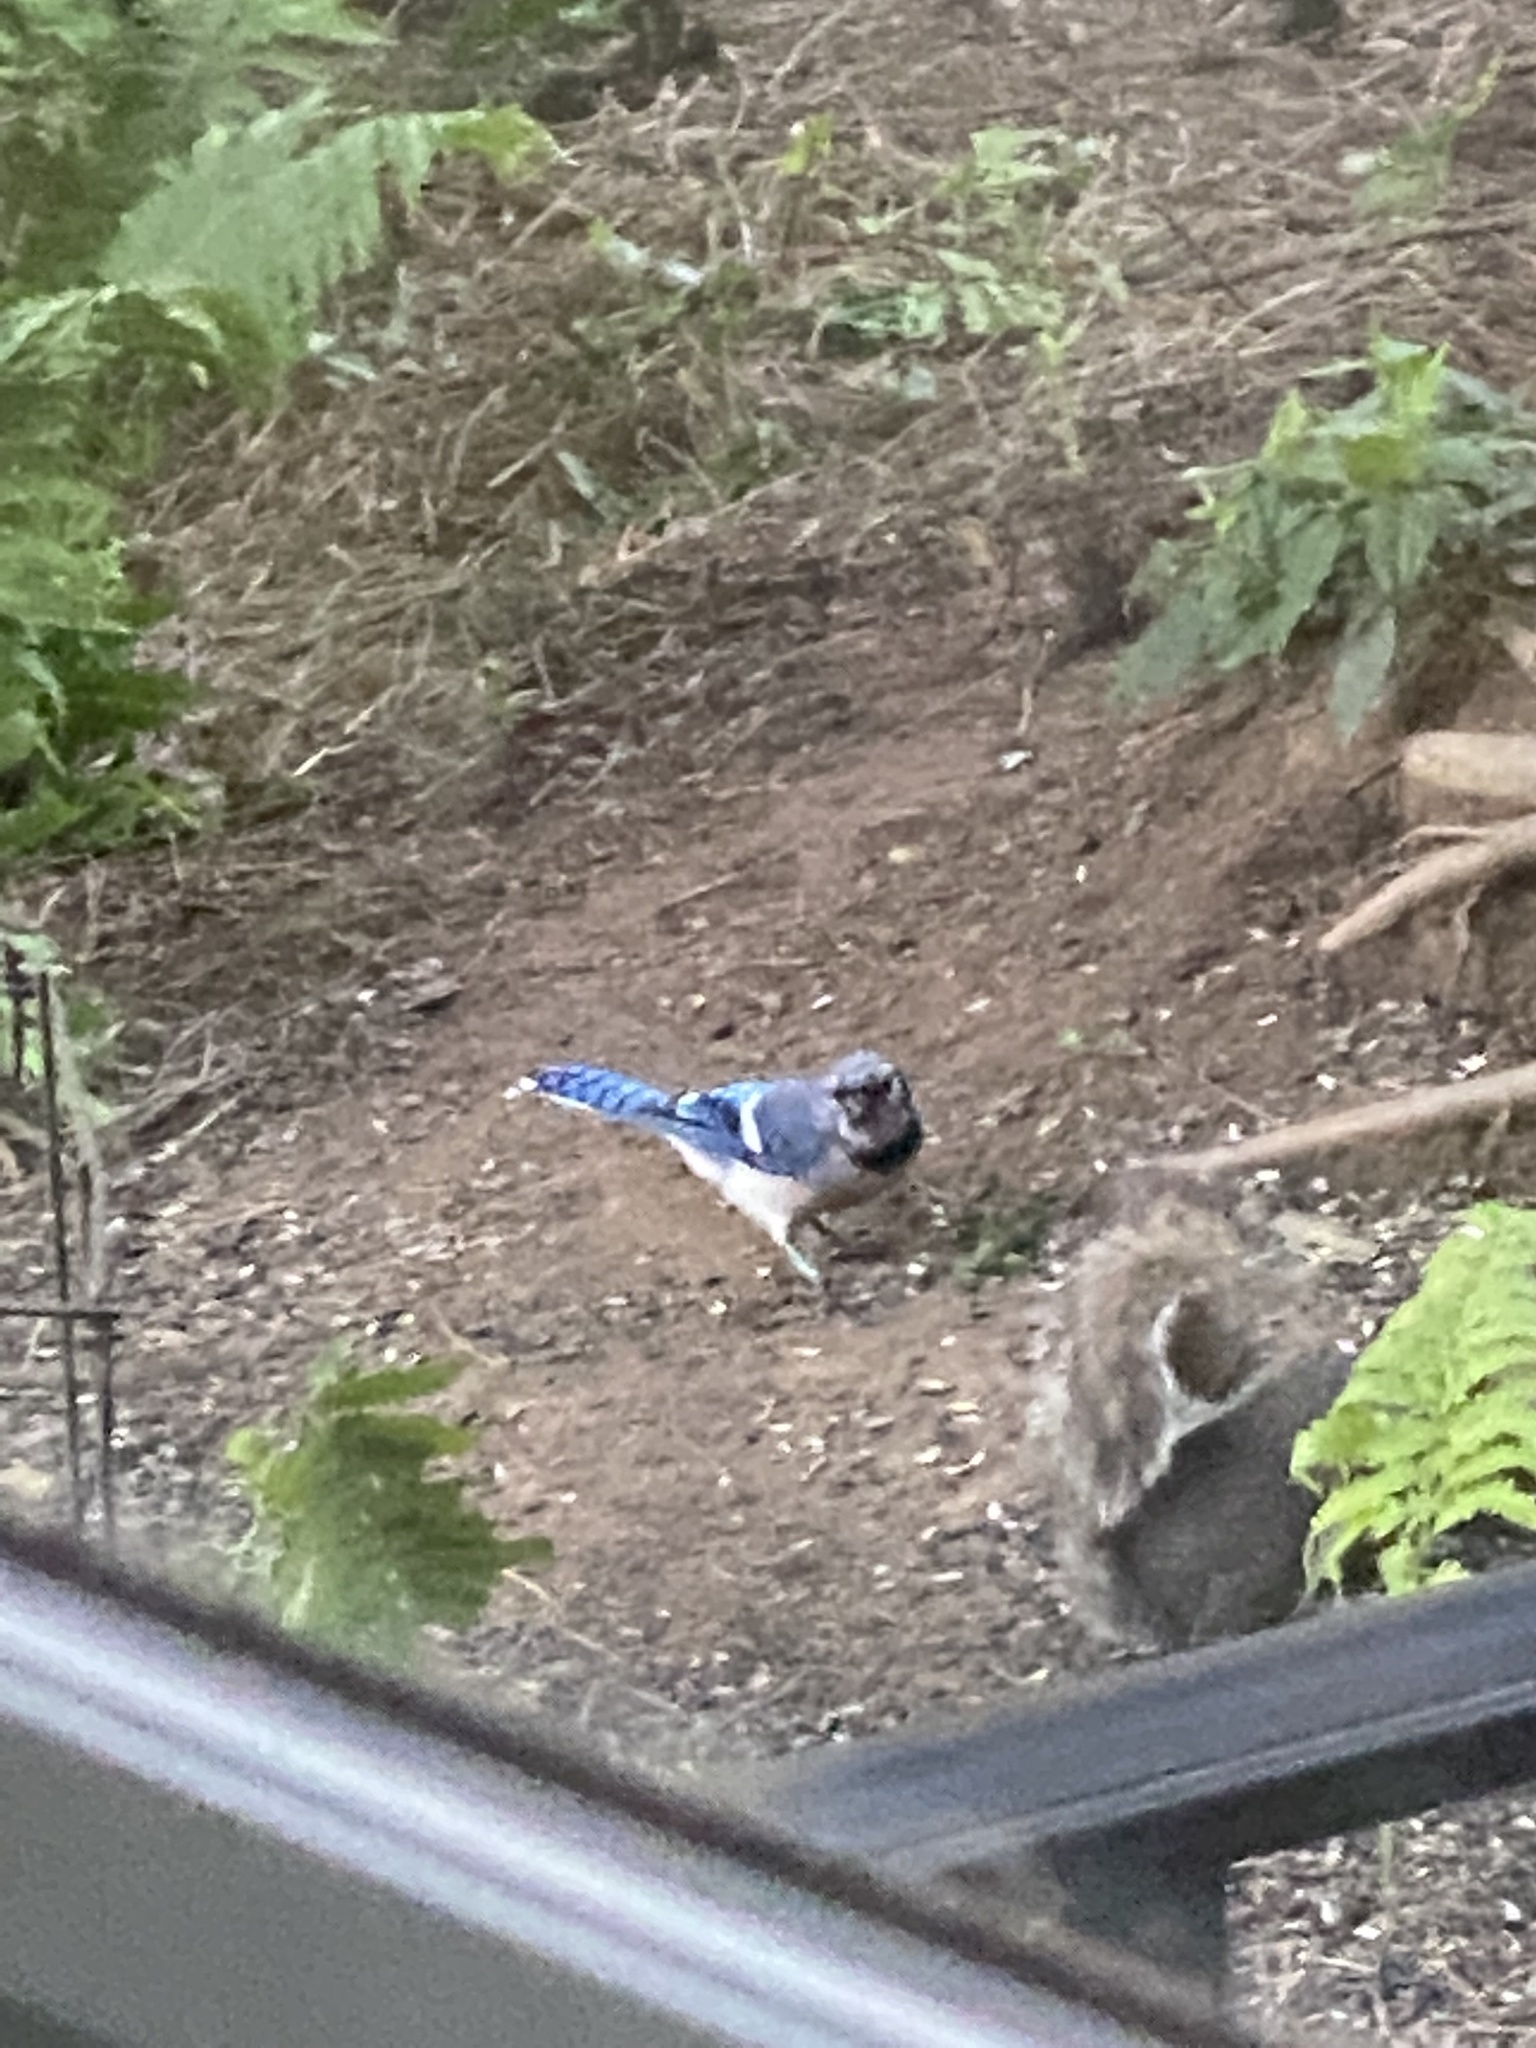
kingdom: Animalia
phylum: Chordata
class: Aves
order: Passeriformes
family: Corvidae
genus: Cyanocitta
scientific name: Cyanocitta cristata
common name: Blue jay
